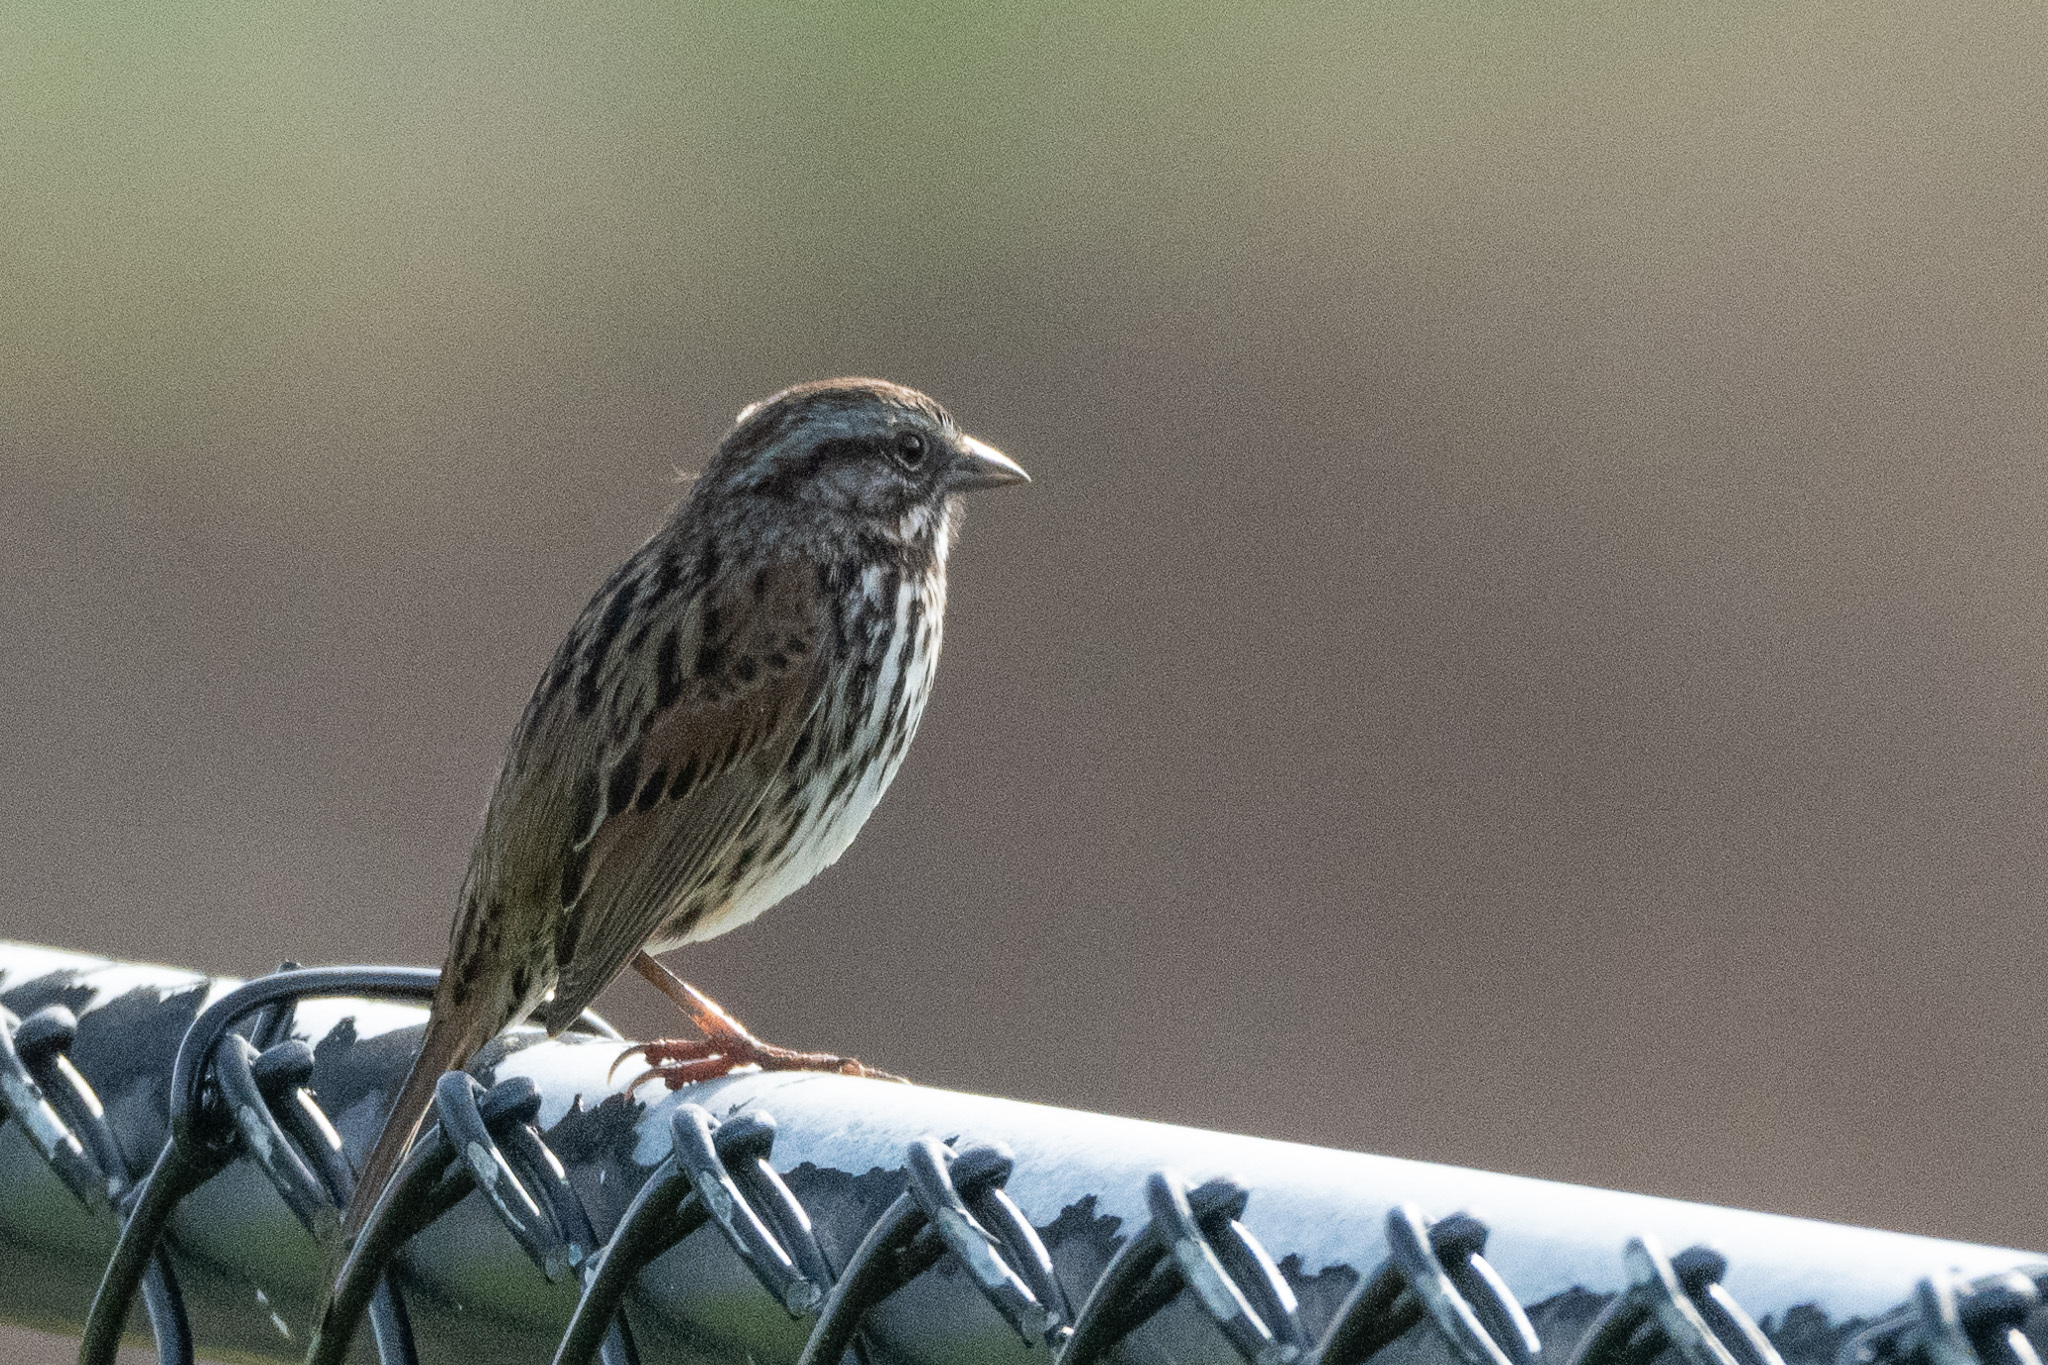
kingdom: Animalia
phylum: Chordata
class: Aves
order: Passeriformes
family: Passerellidae
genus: Melospiza
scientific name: Melospiza melodia
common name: Song sparrow
